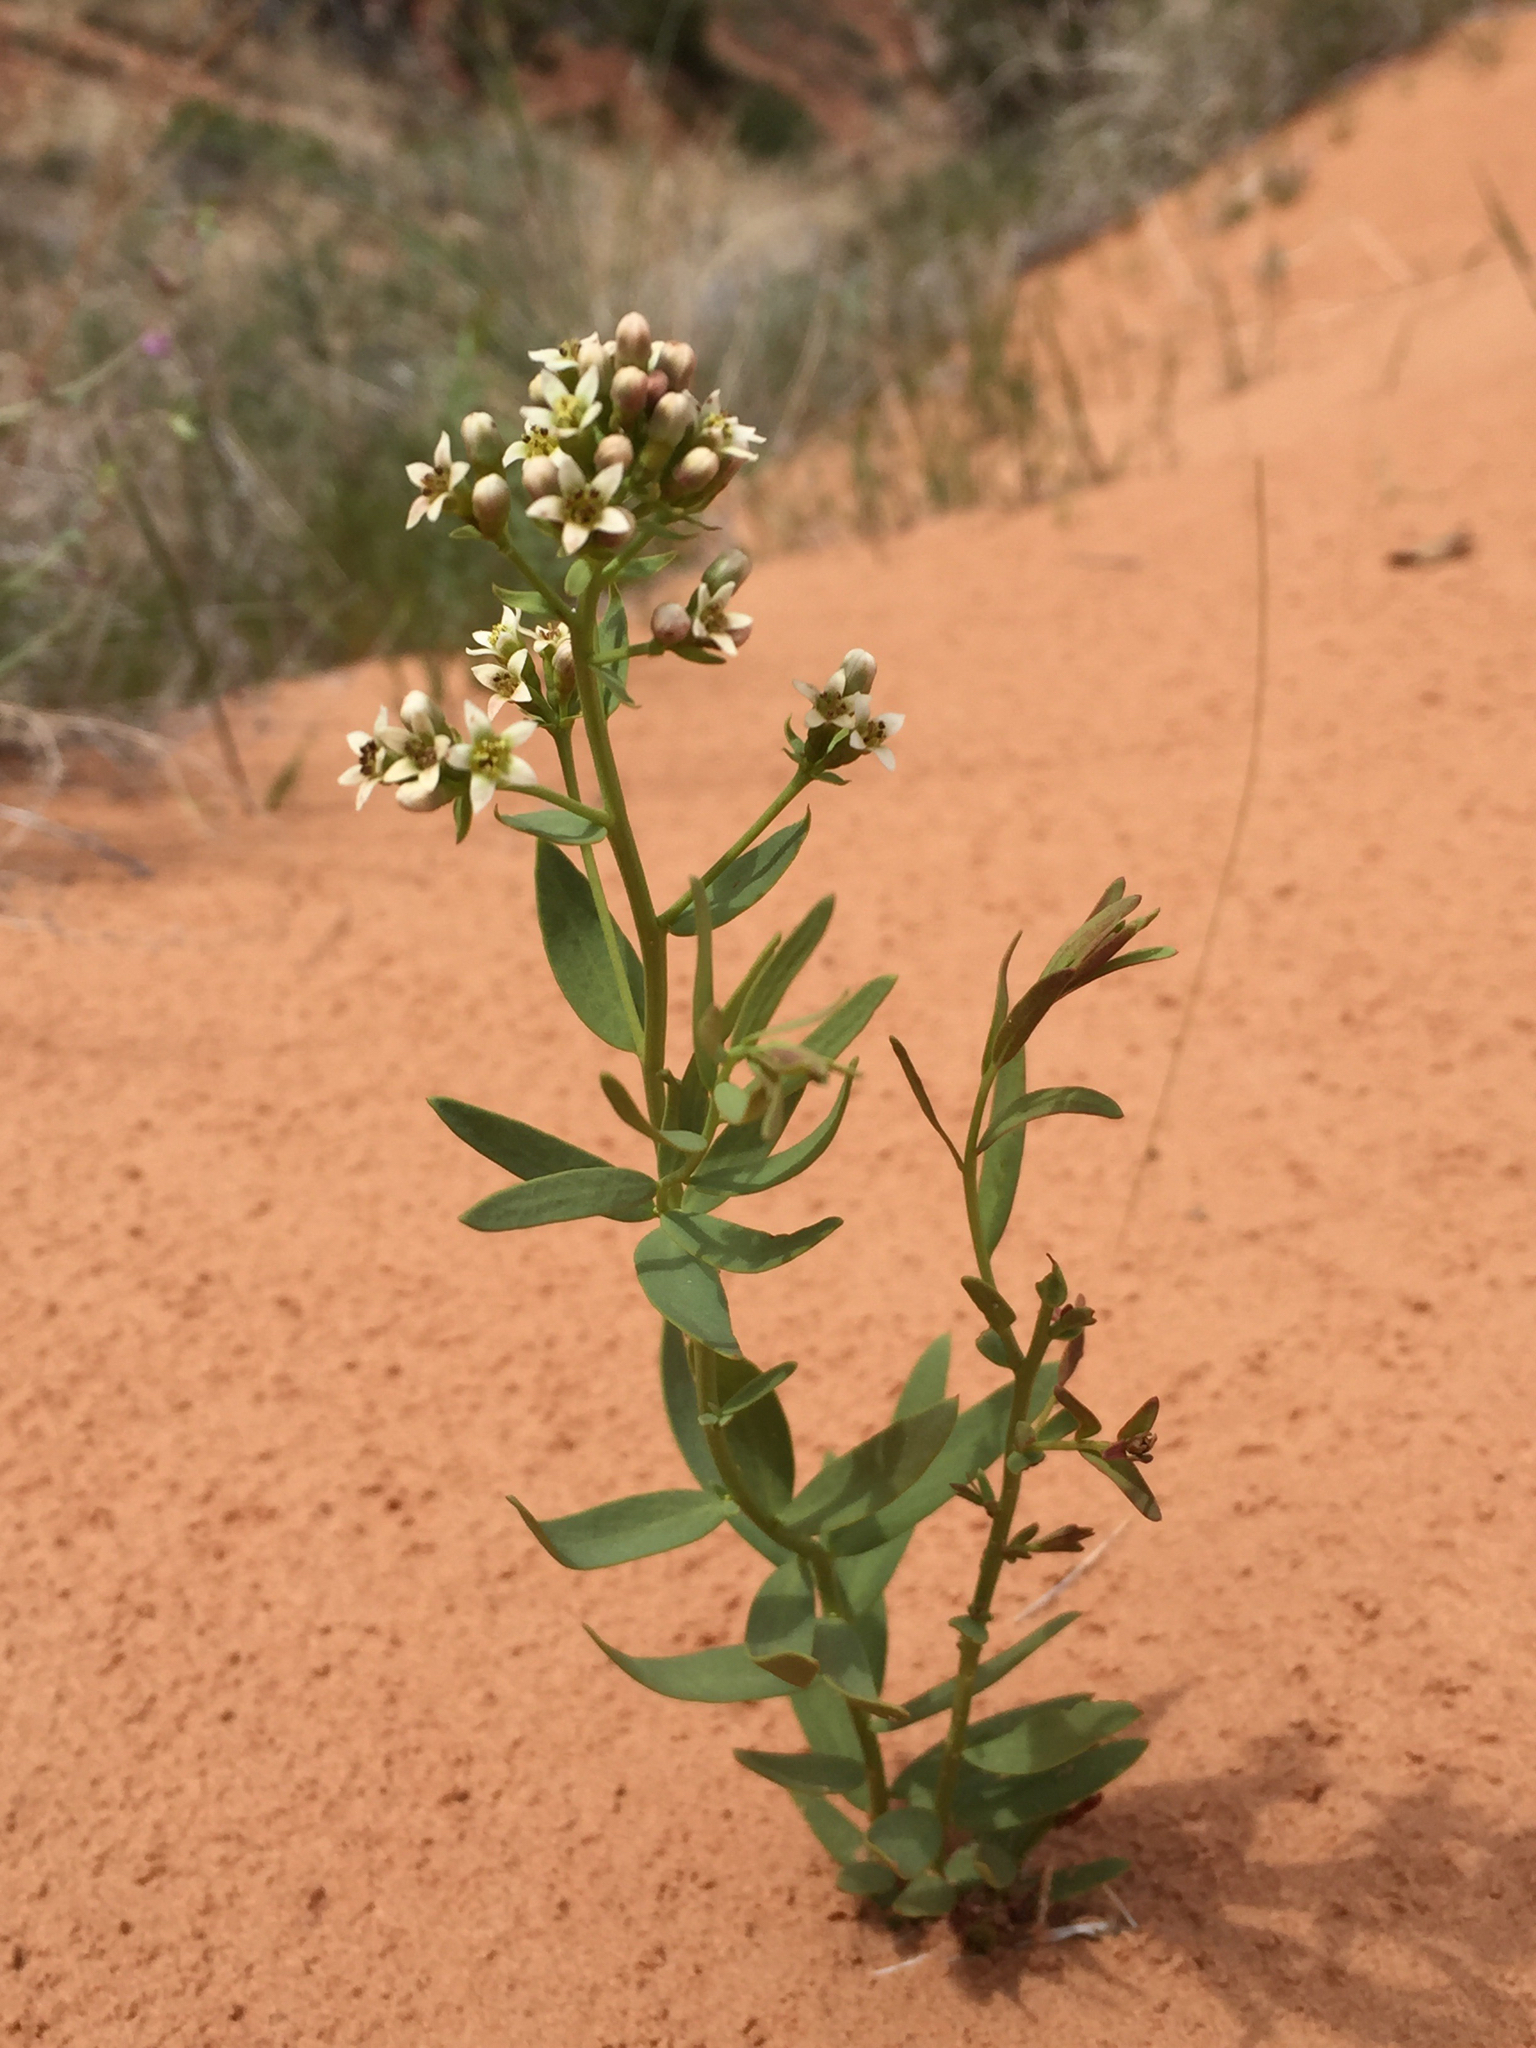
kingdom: Plantae
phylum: Tracheophyta
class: Magnoliopsida
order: Santalales
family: Comandraceae
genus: Comandra
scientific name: Comandra umbellata
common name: Bastard toadflax
